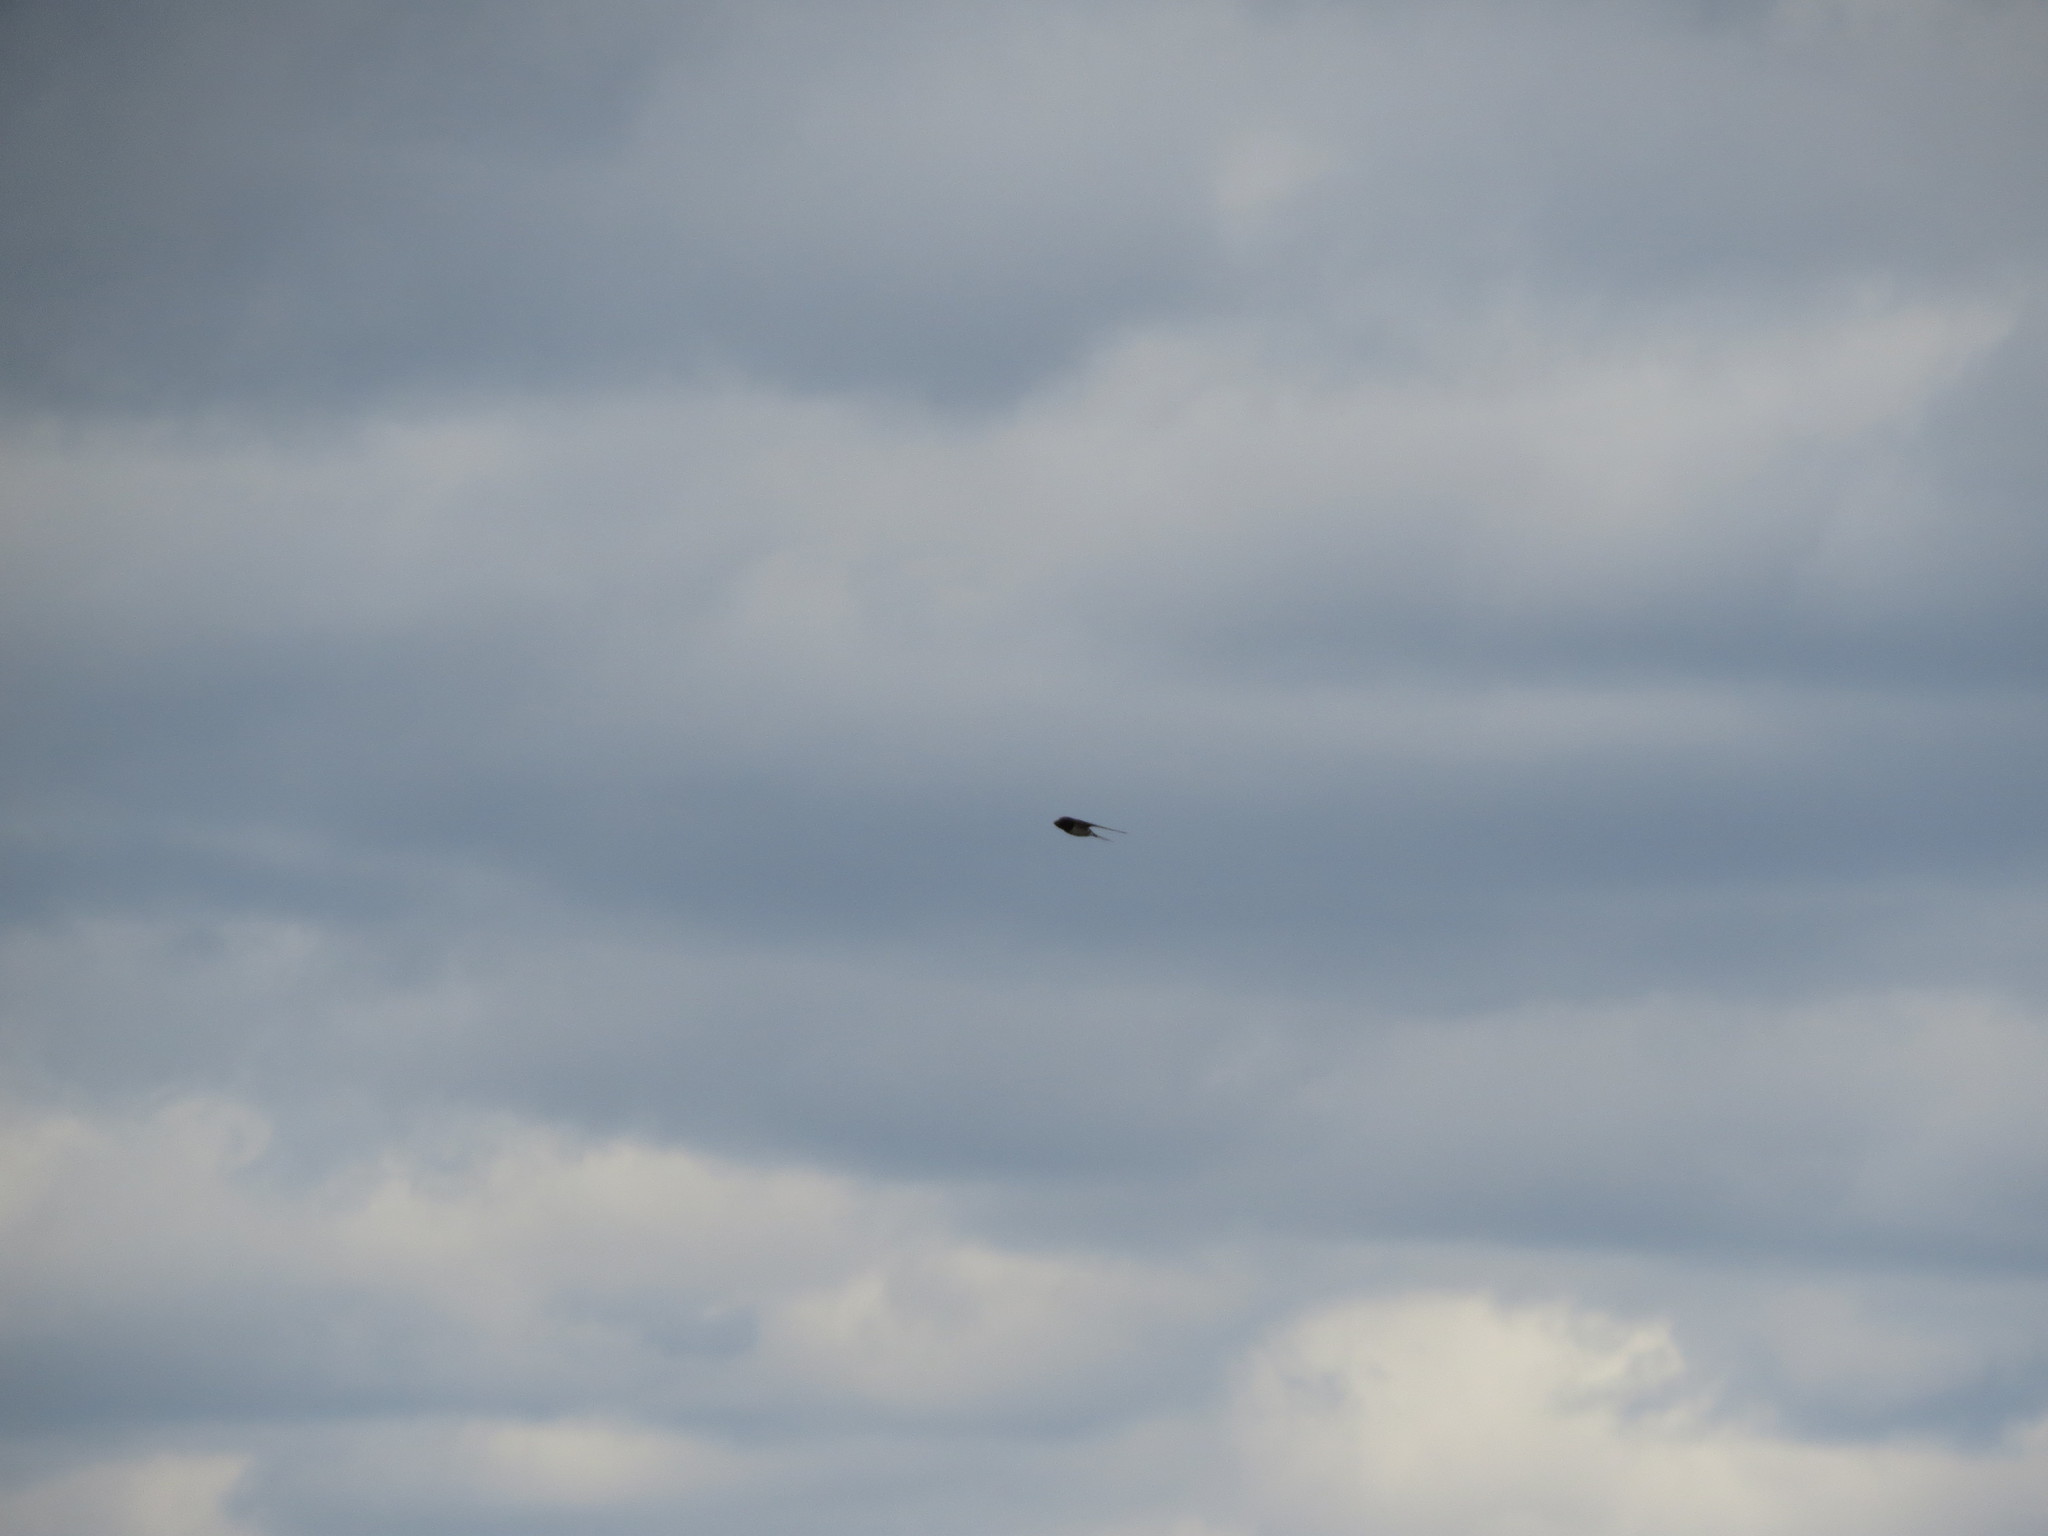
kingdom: Animalia
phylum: Chordata
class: Aves
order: Passeriformes
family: Hirundinidae
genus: Hirundo
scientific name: Hirundo rustica
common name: Barn swallow
